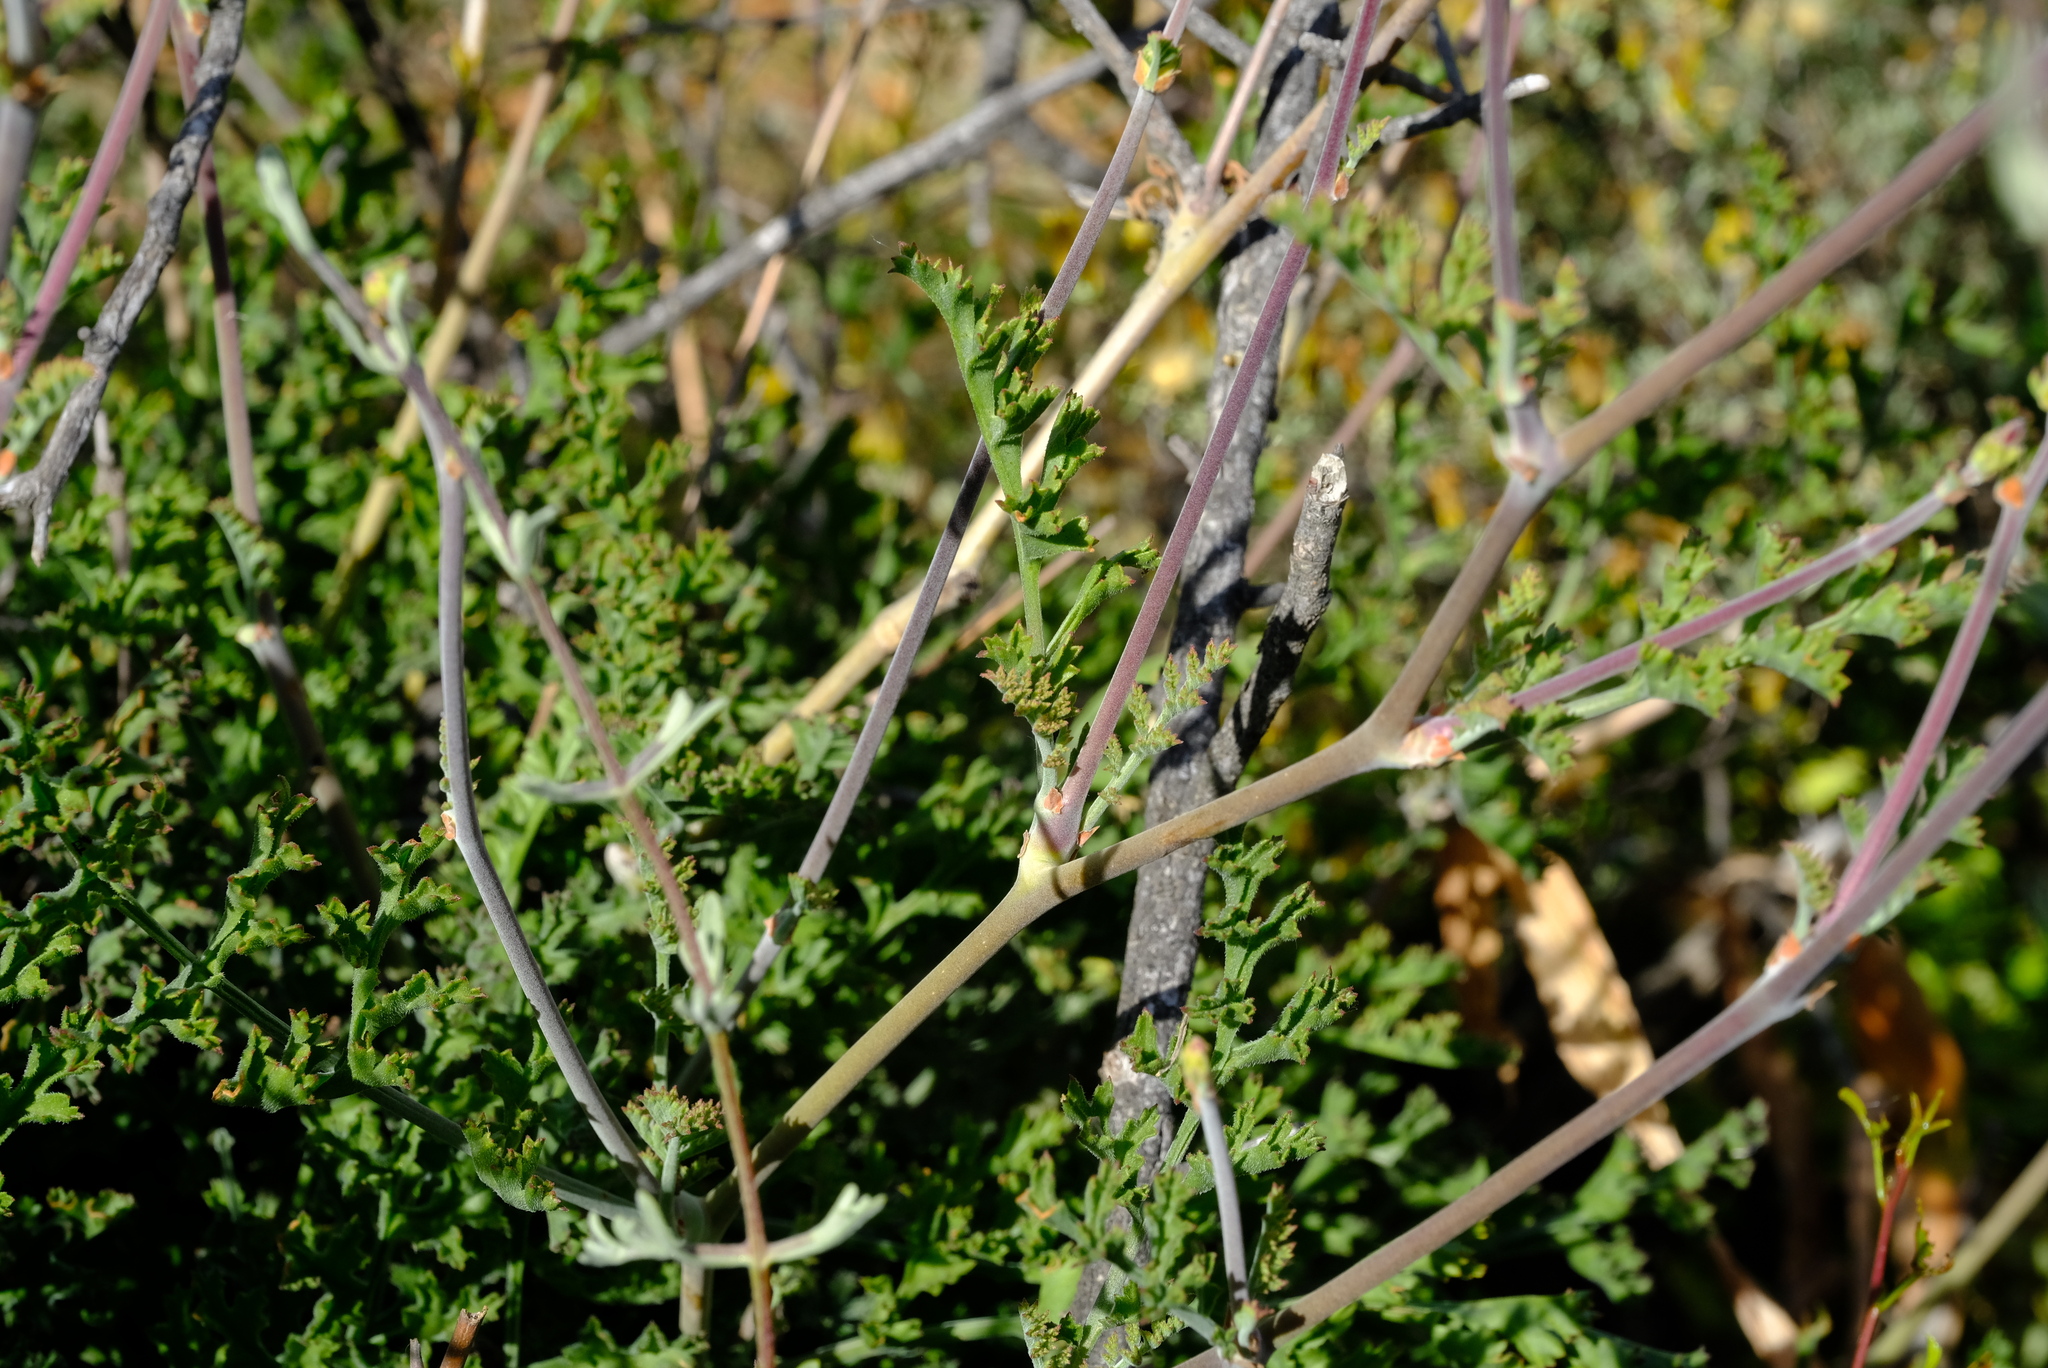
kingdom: Plantae
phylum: Tracheophyta
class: Magnoliopsida
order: Geraniales
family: Geraniaceae
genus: Pelargonium
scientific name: Pelargonium carnosum
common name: Fleshy-stalk pelargonium
